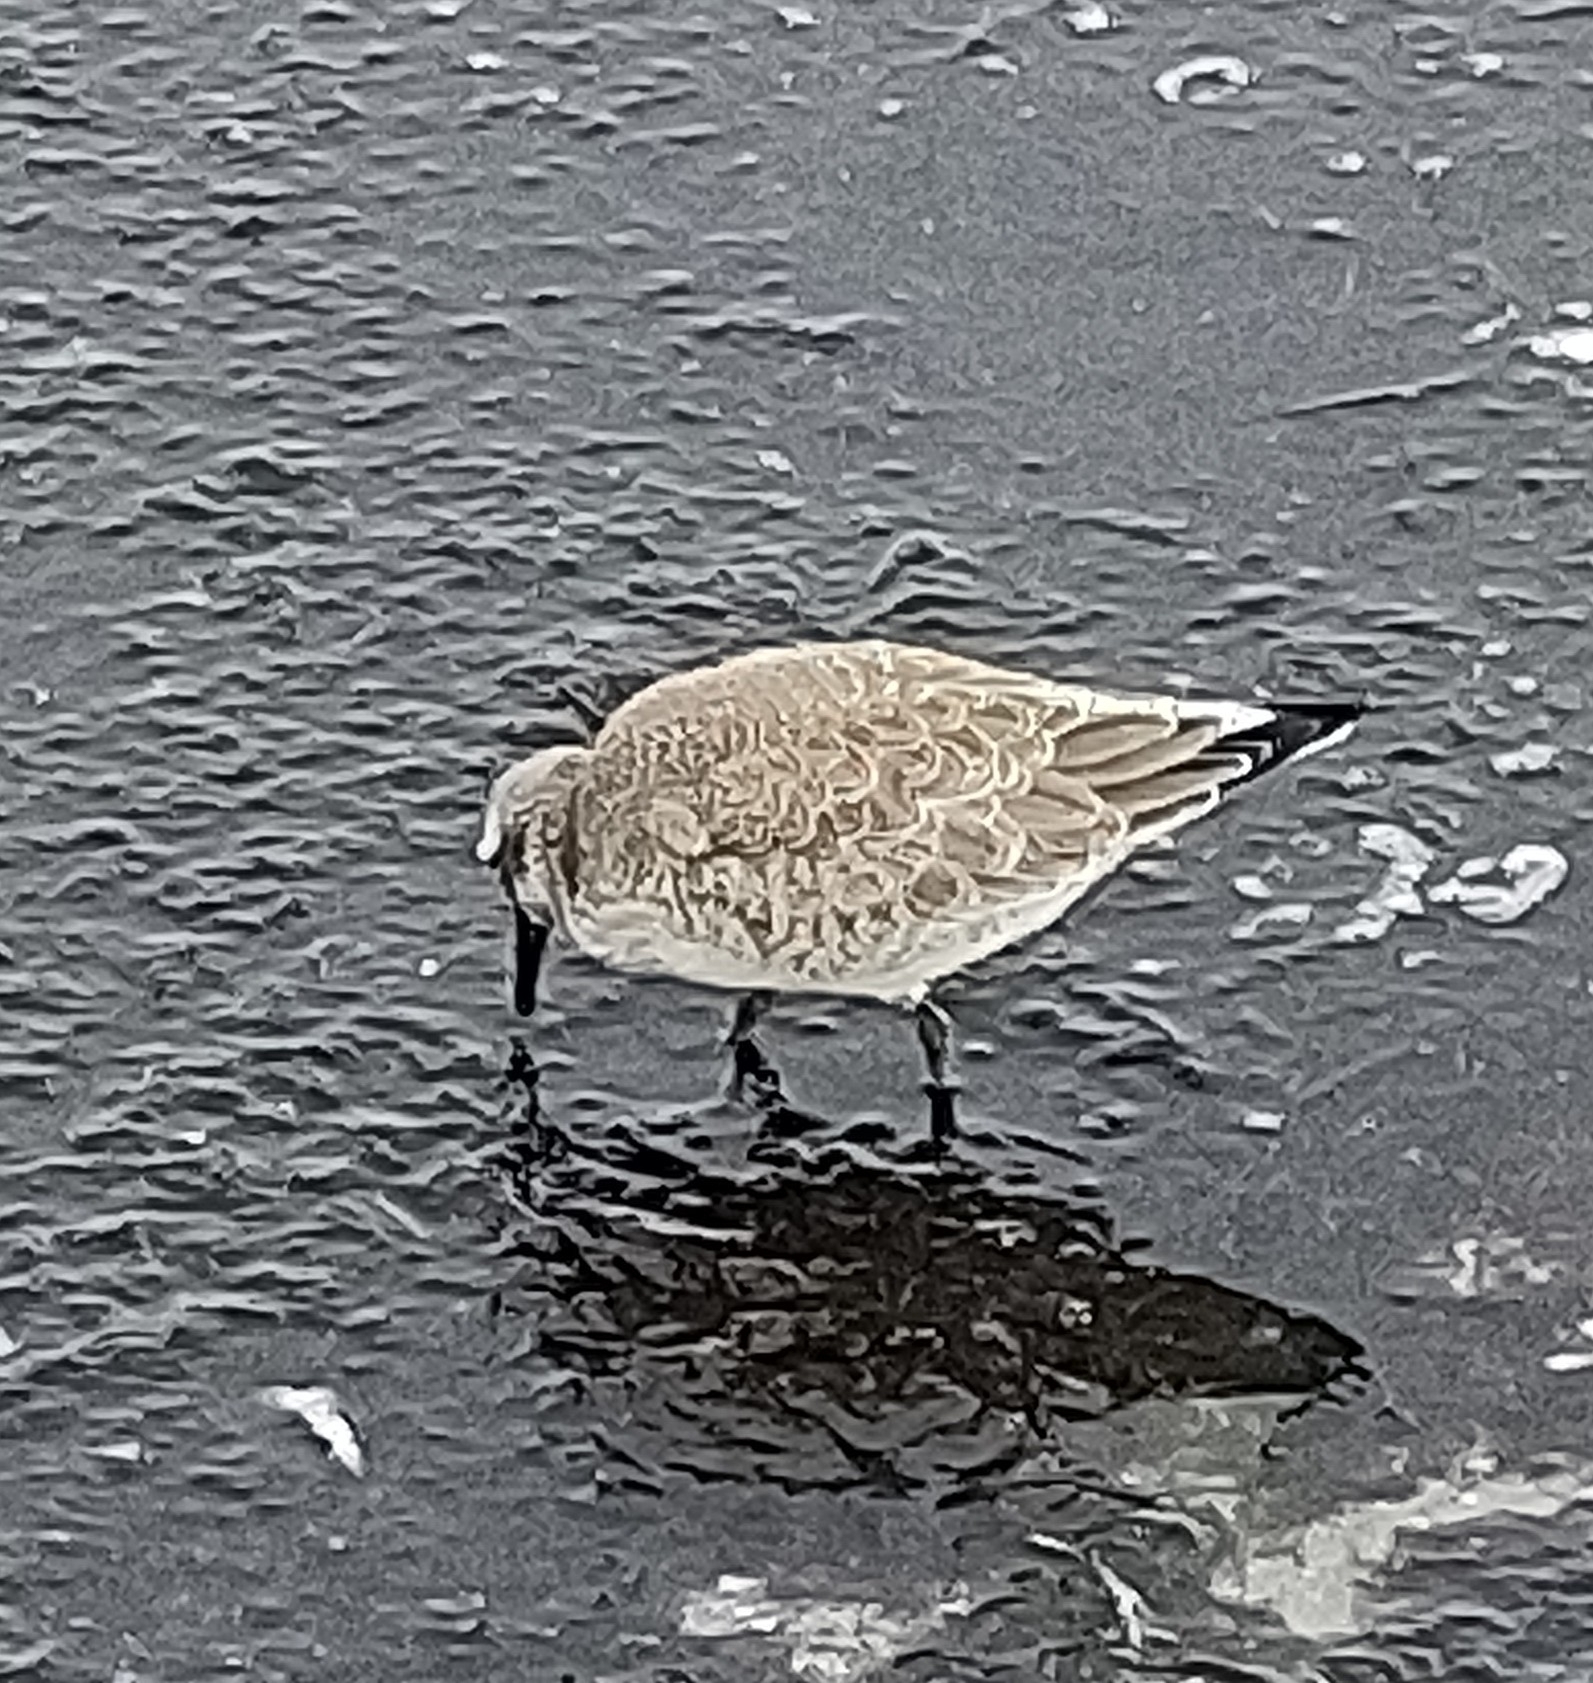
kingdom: Animalia
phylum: Chordata
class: Aves
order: Charadriiformes
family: Scolopacidae
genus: Calidris
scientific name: Calidris canutus
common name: Red knot
